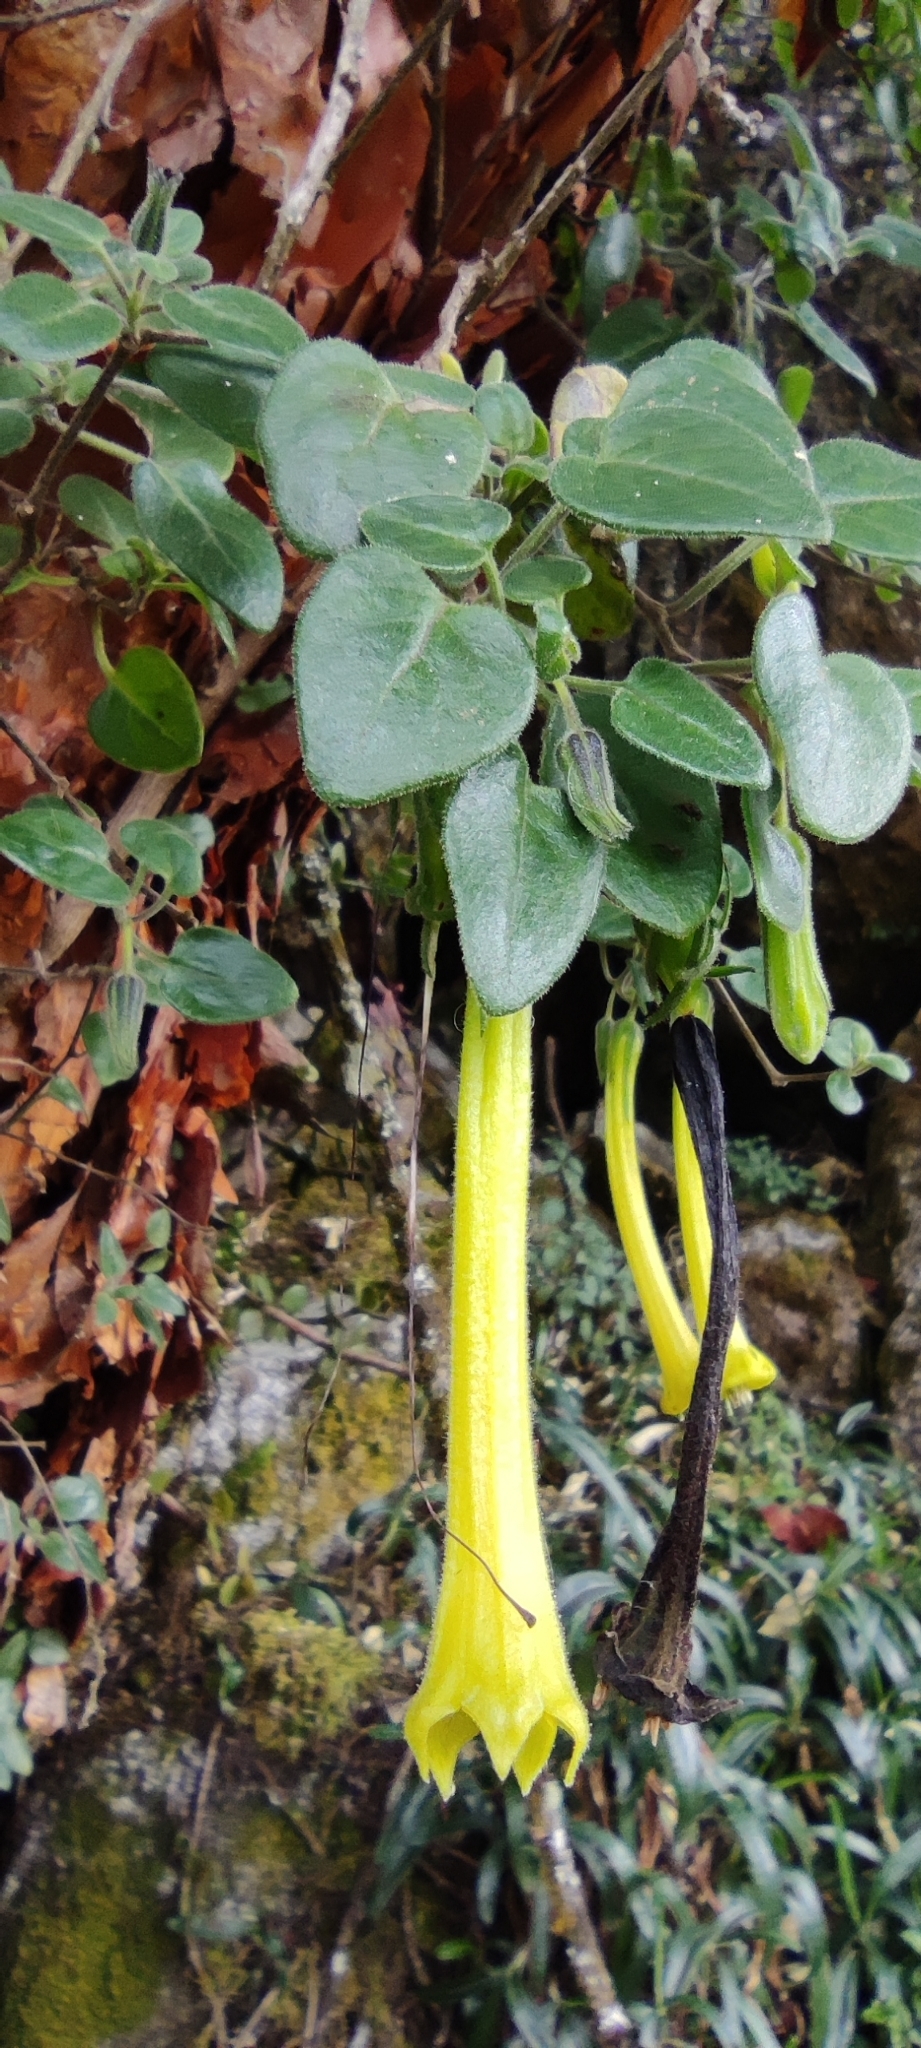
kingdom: Plantae
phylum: Tracheophyta
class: Magnoliopsida
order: Solanales
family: Solanaceae
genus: Salpichroa
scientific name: Salpichroa glandulosa
